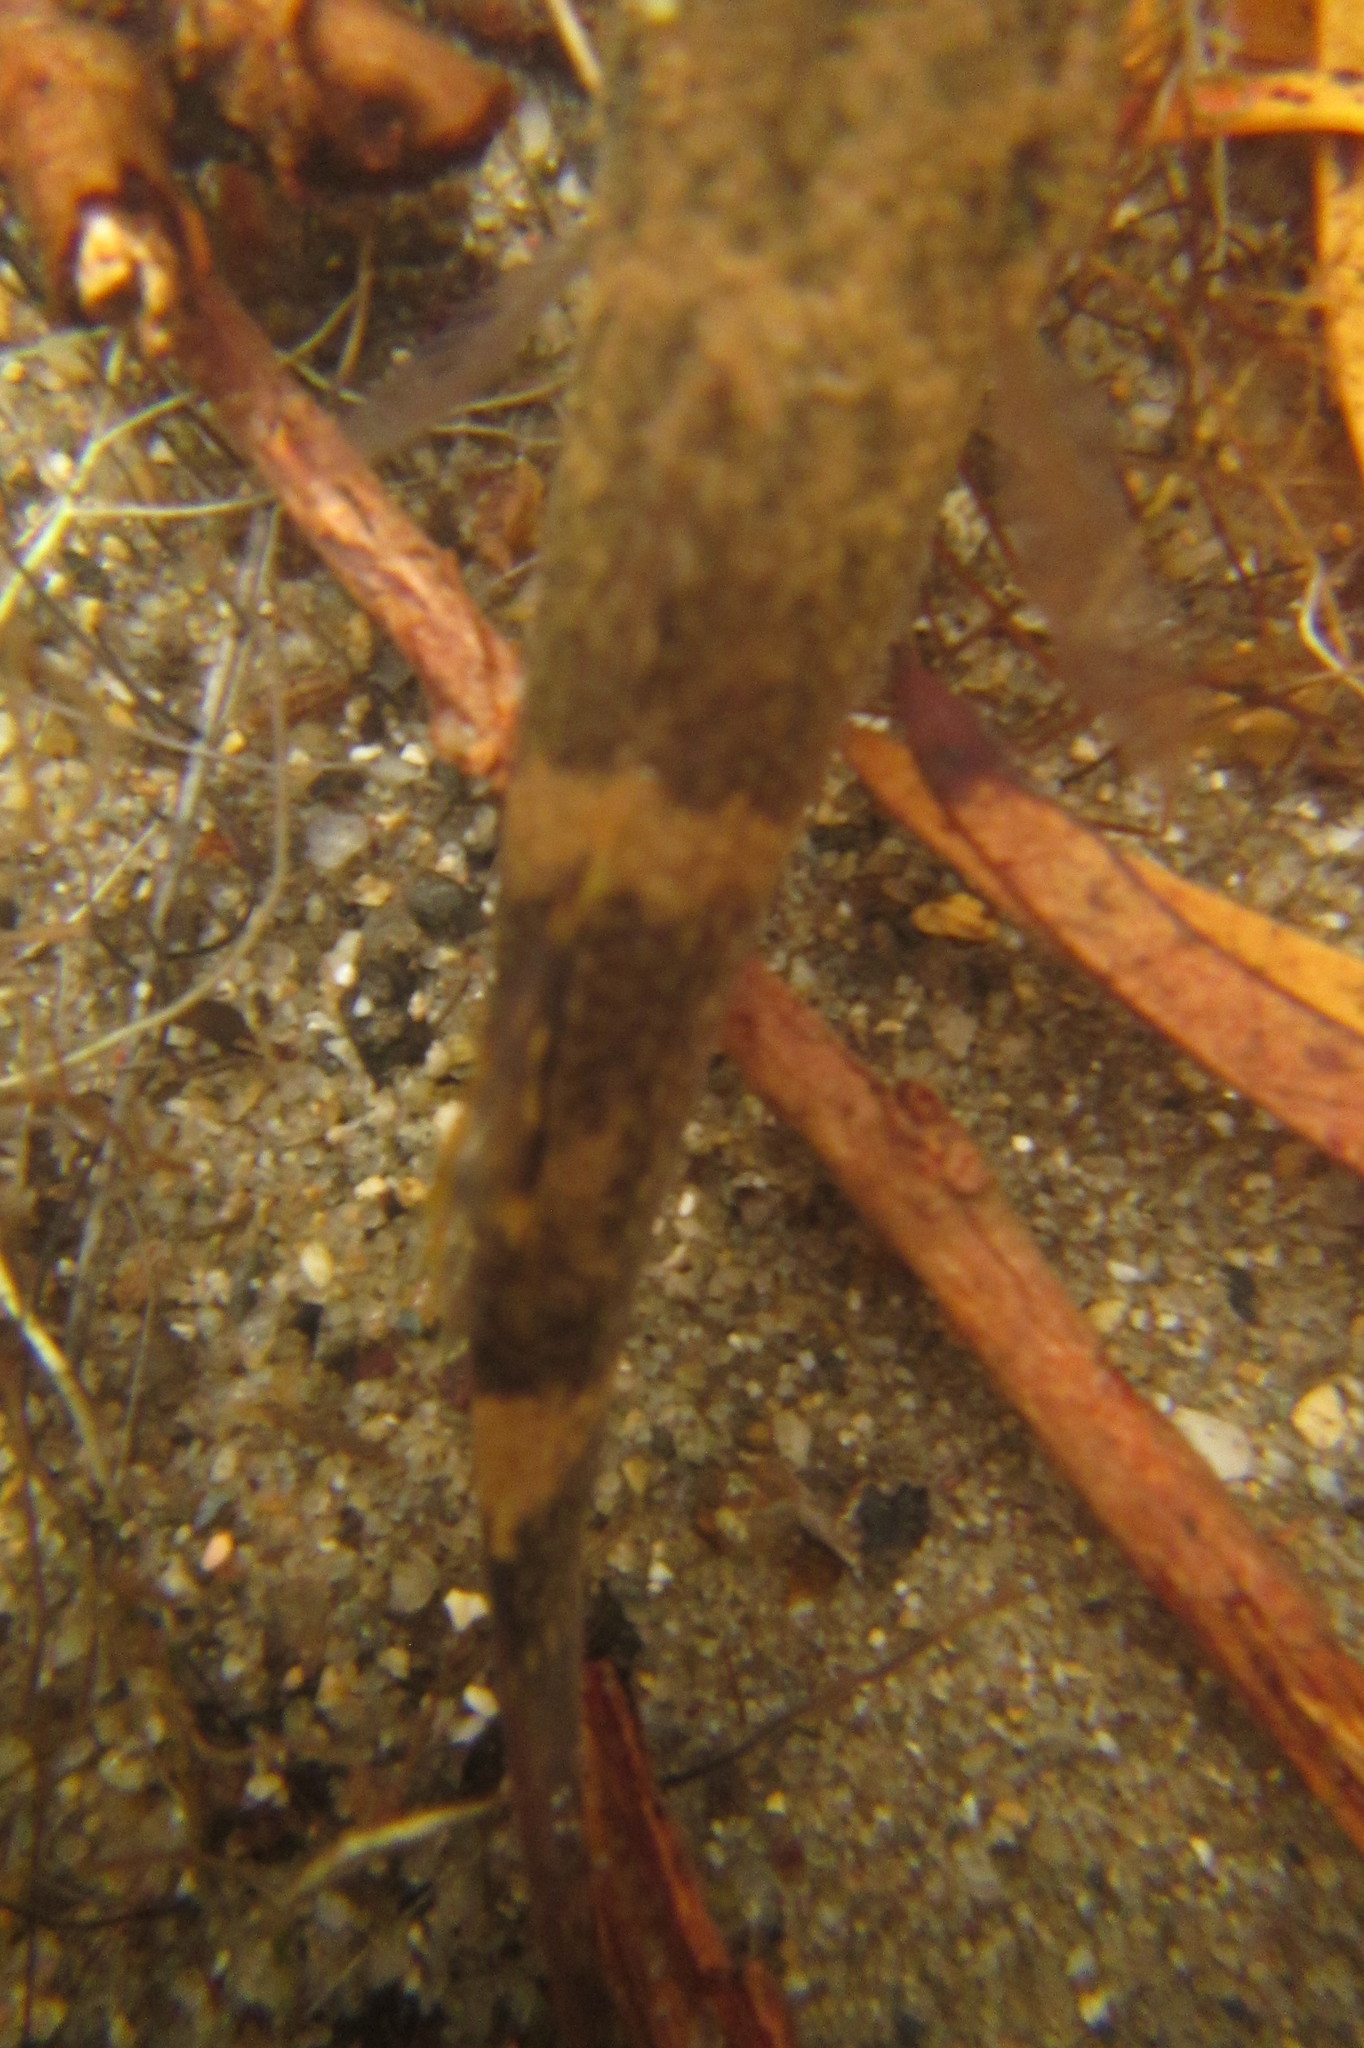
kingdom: Animalia
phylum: Chordata
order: Perciformes
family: Eleotridae
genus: Giuris
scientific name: Giuris
